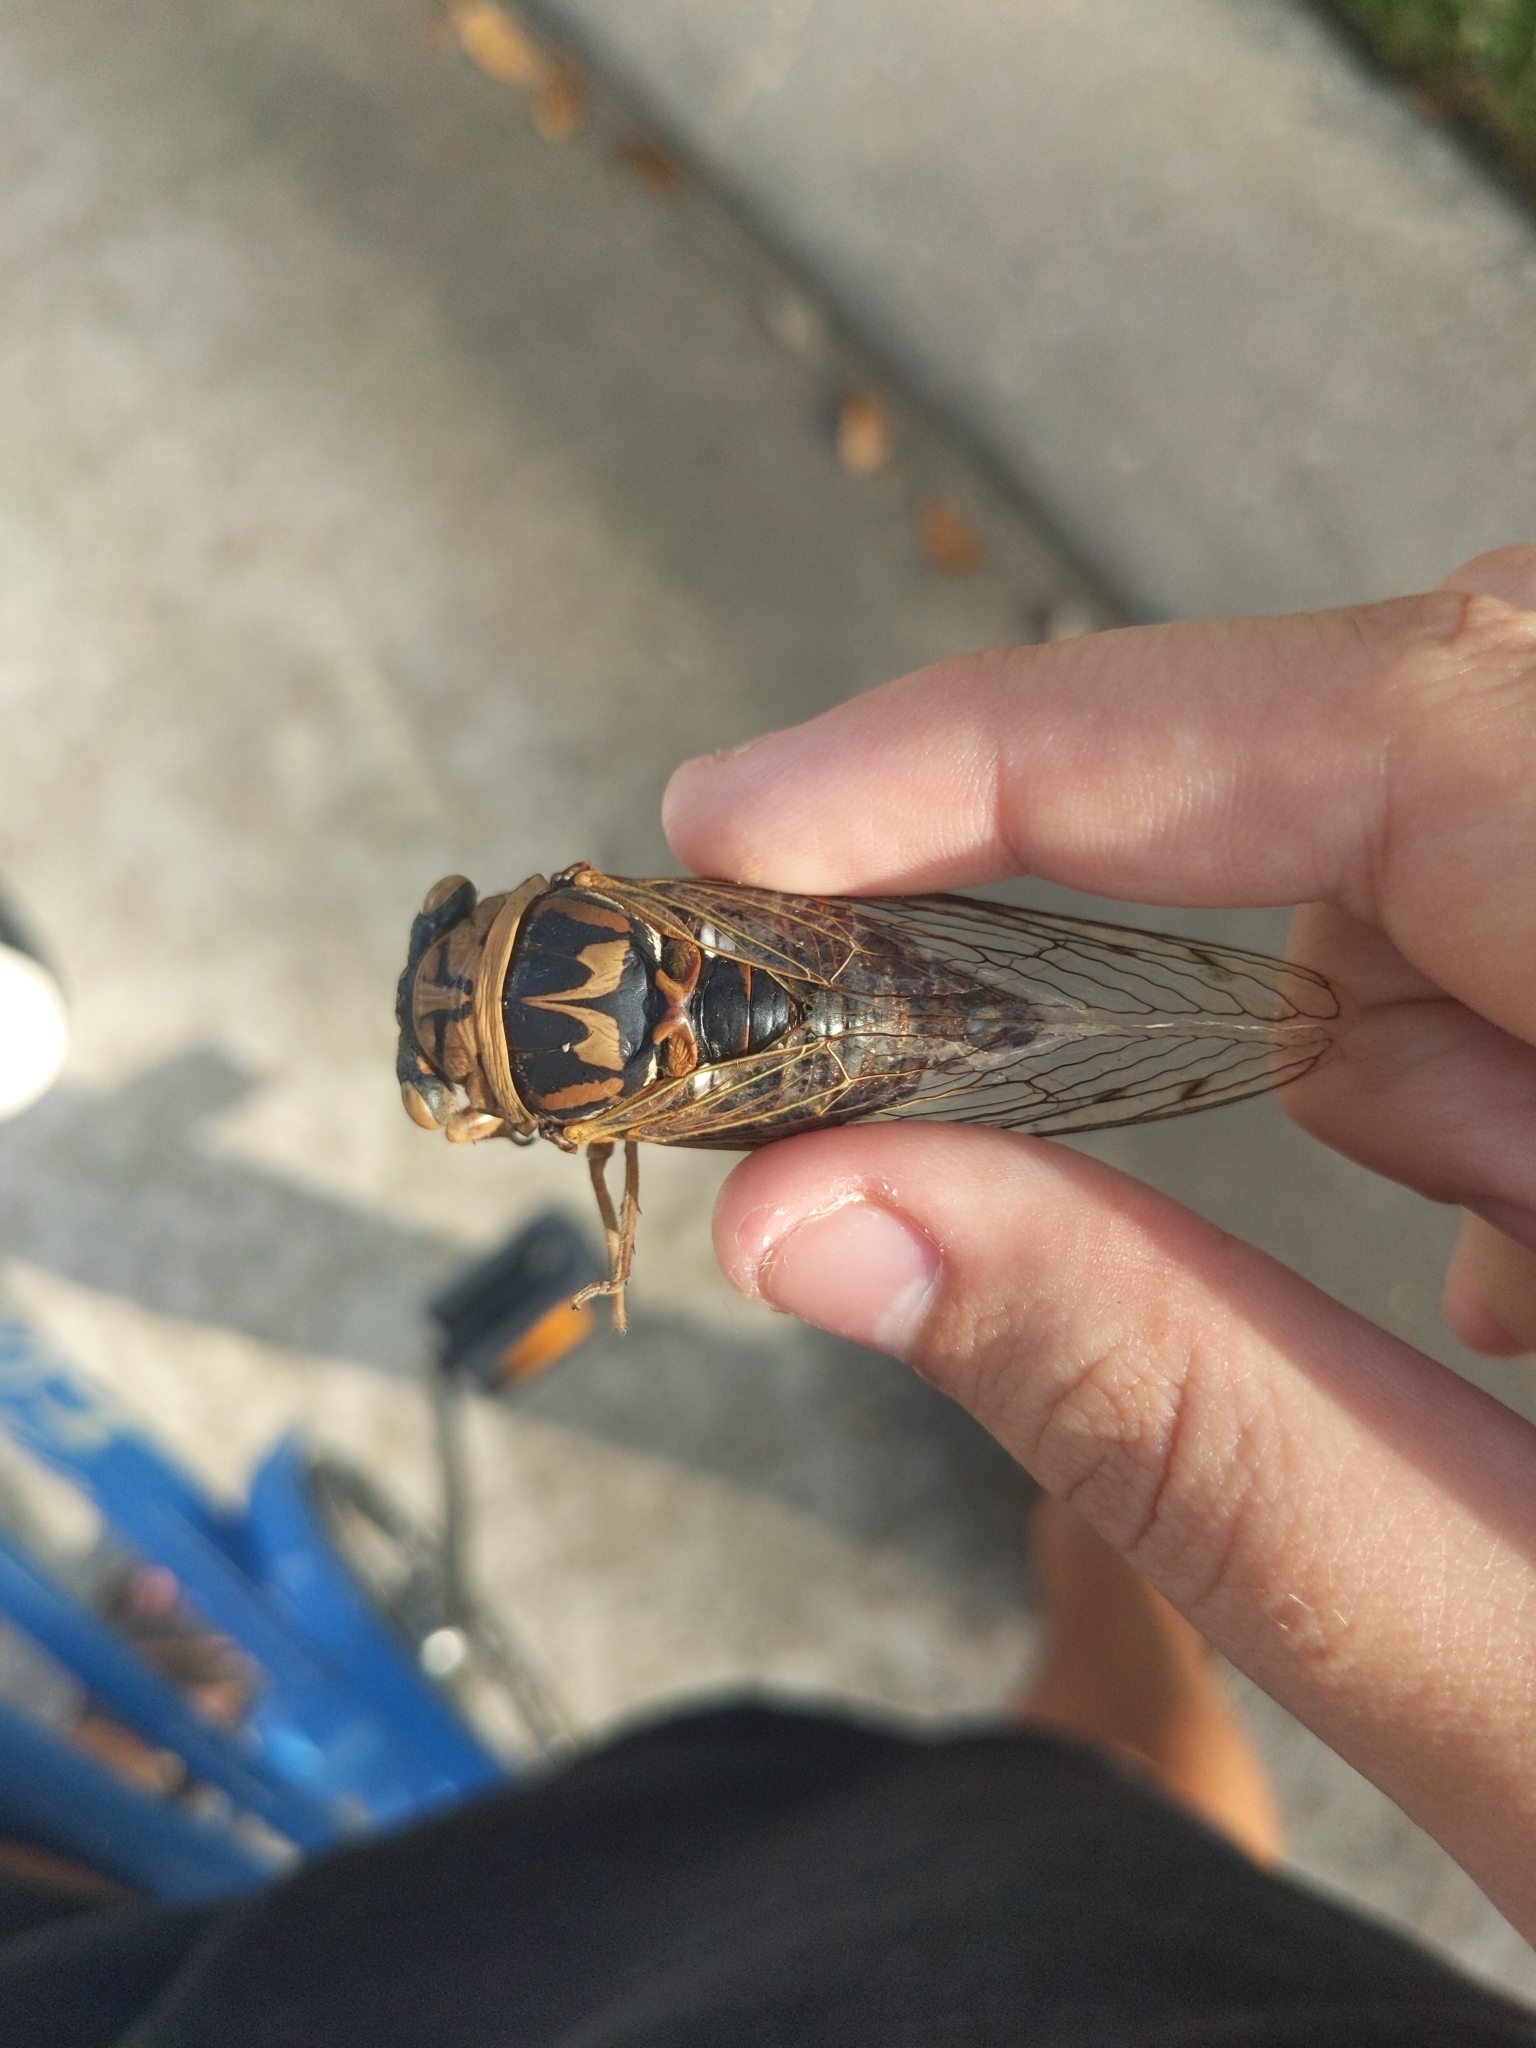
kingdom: Animalia
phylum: Arthropoda
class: Insecta
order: Hemiptera
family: Cicadidae
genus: Megatibicen
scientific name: Megatibicen resh
